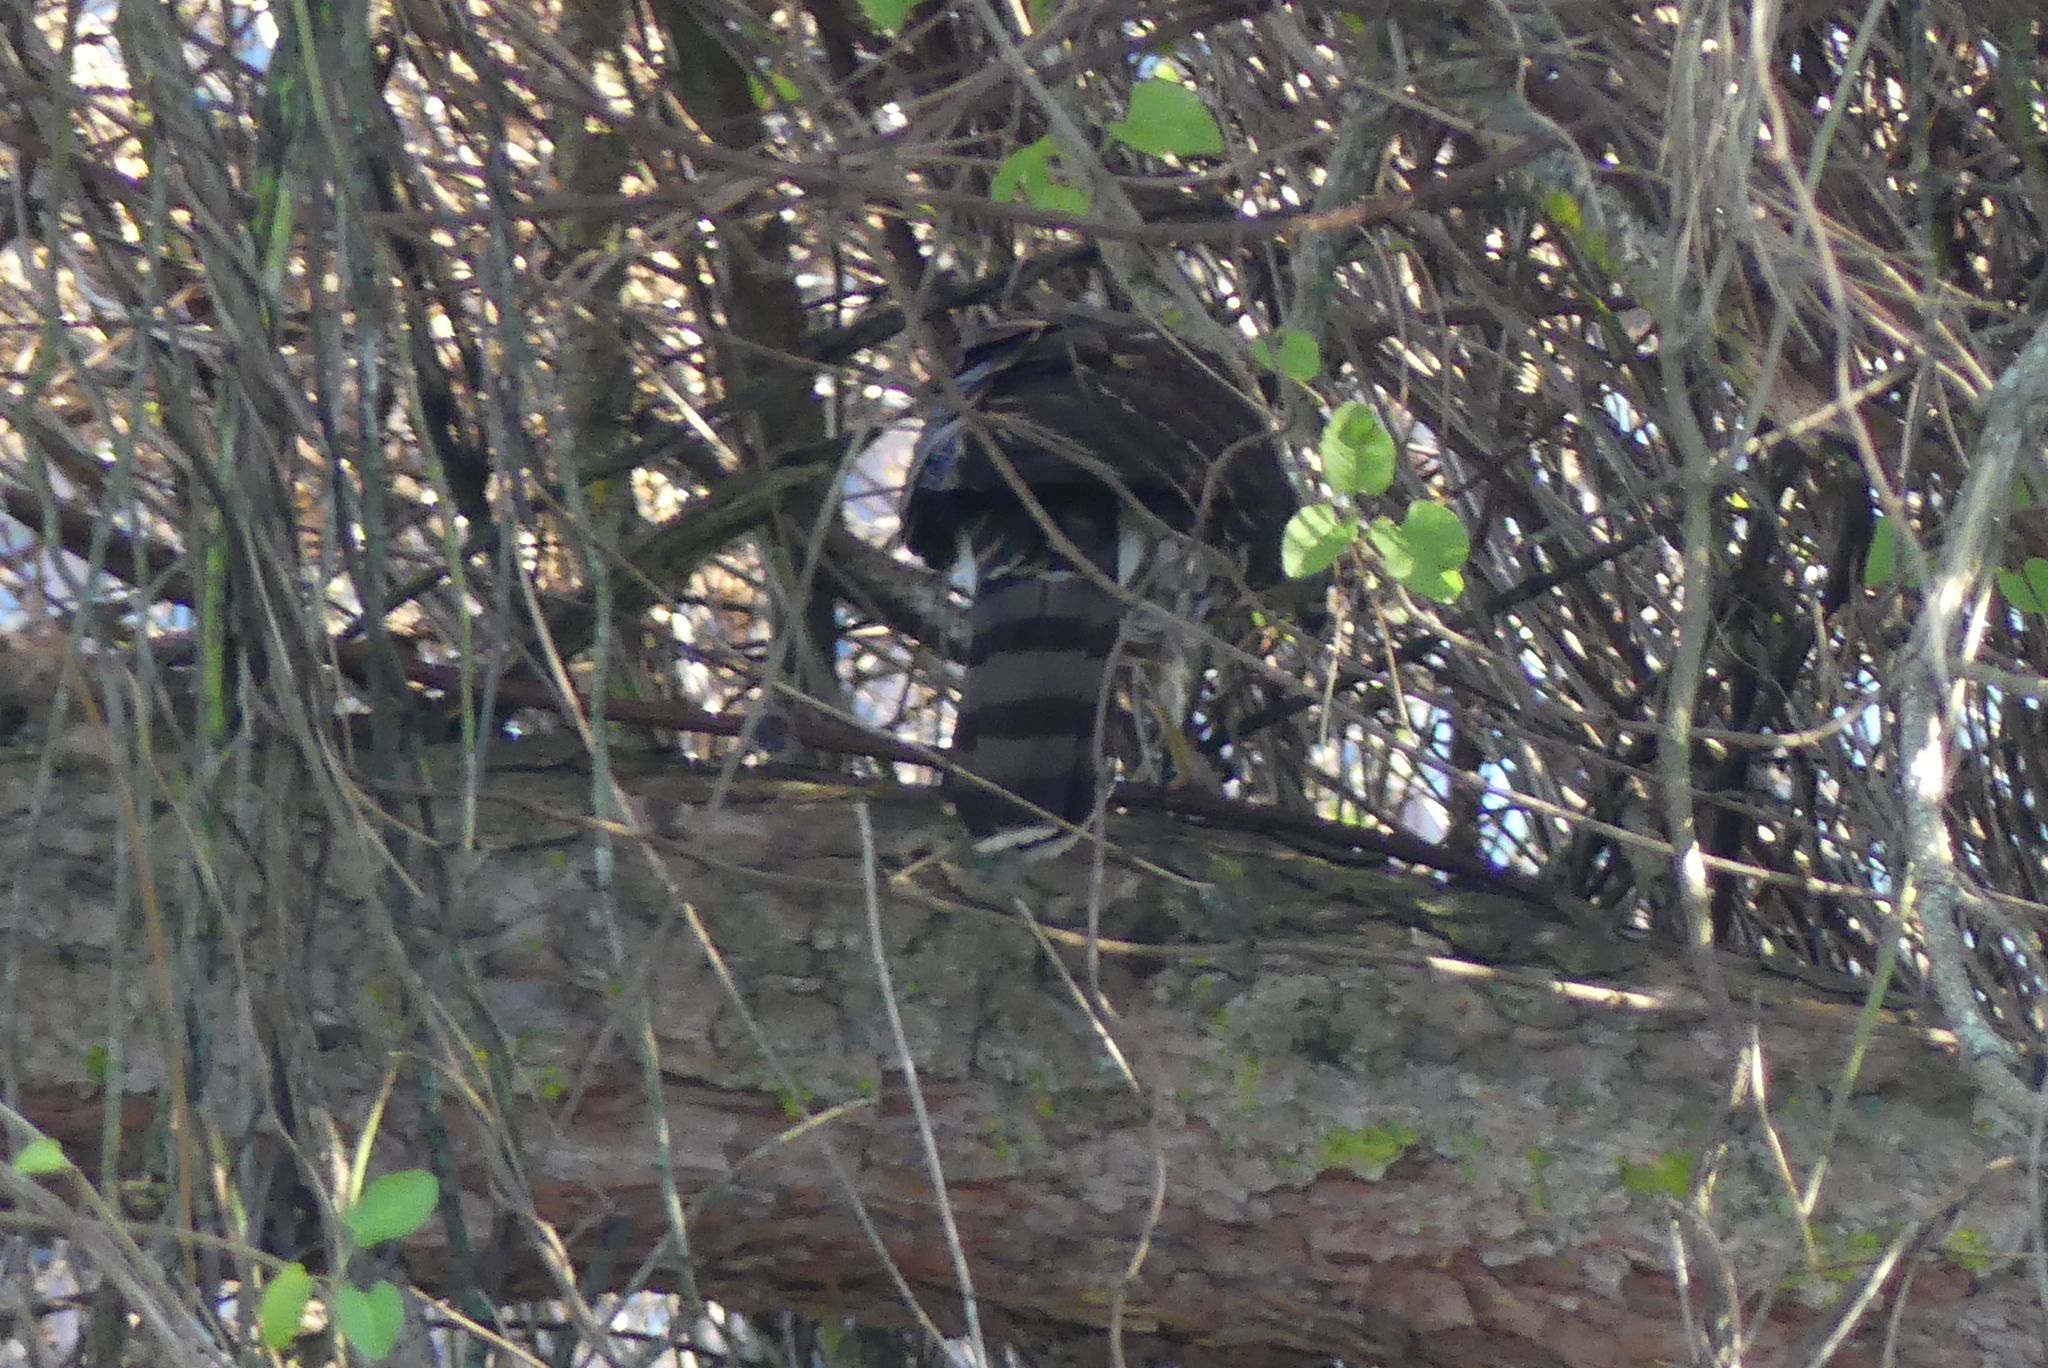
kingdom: Animalia
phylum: Chordata
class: Aves
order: Accipitriformes
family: Accipitridae
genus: Accipiter
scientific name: Accipiter cooperii
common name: Cooper's hawk
